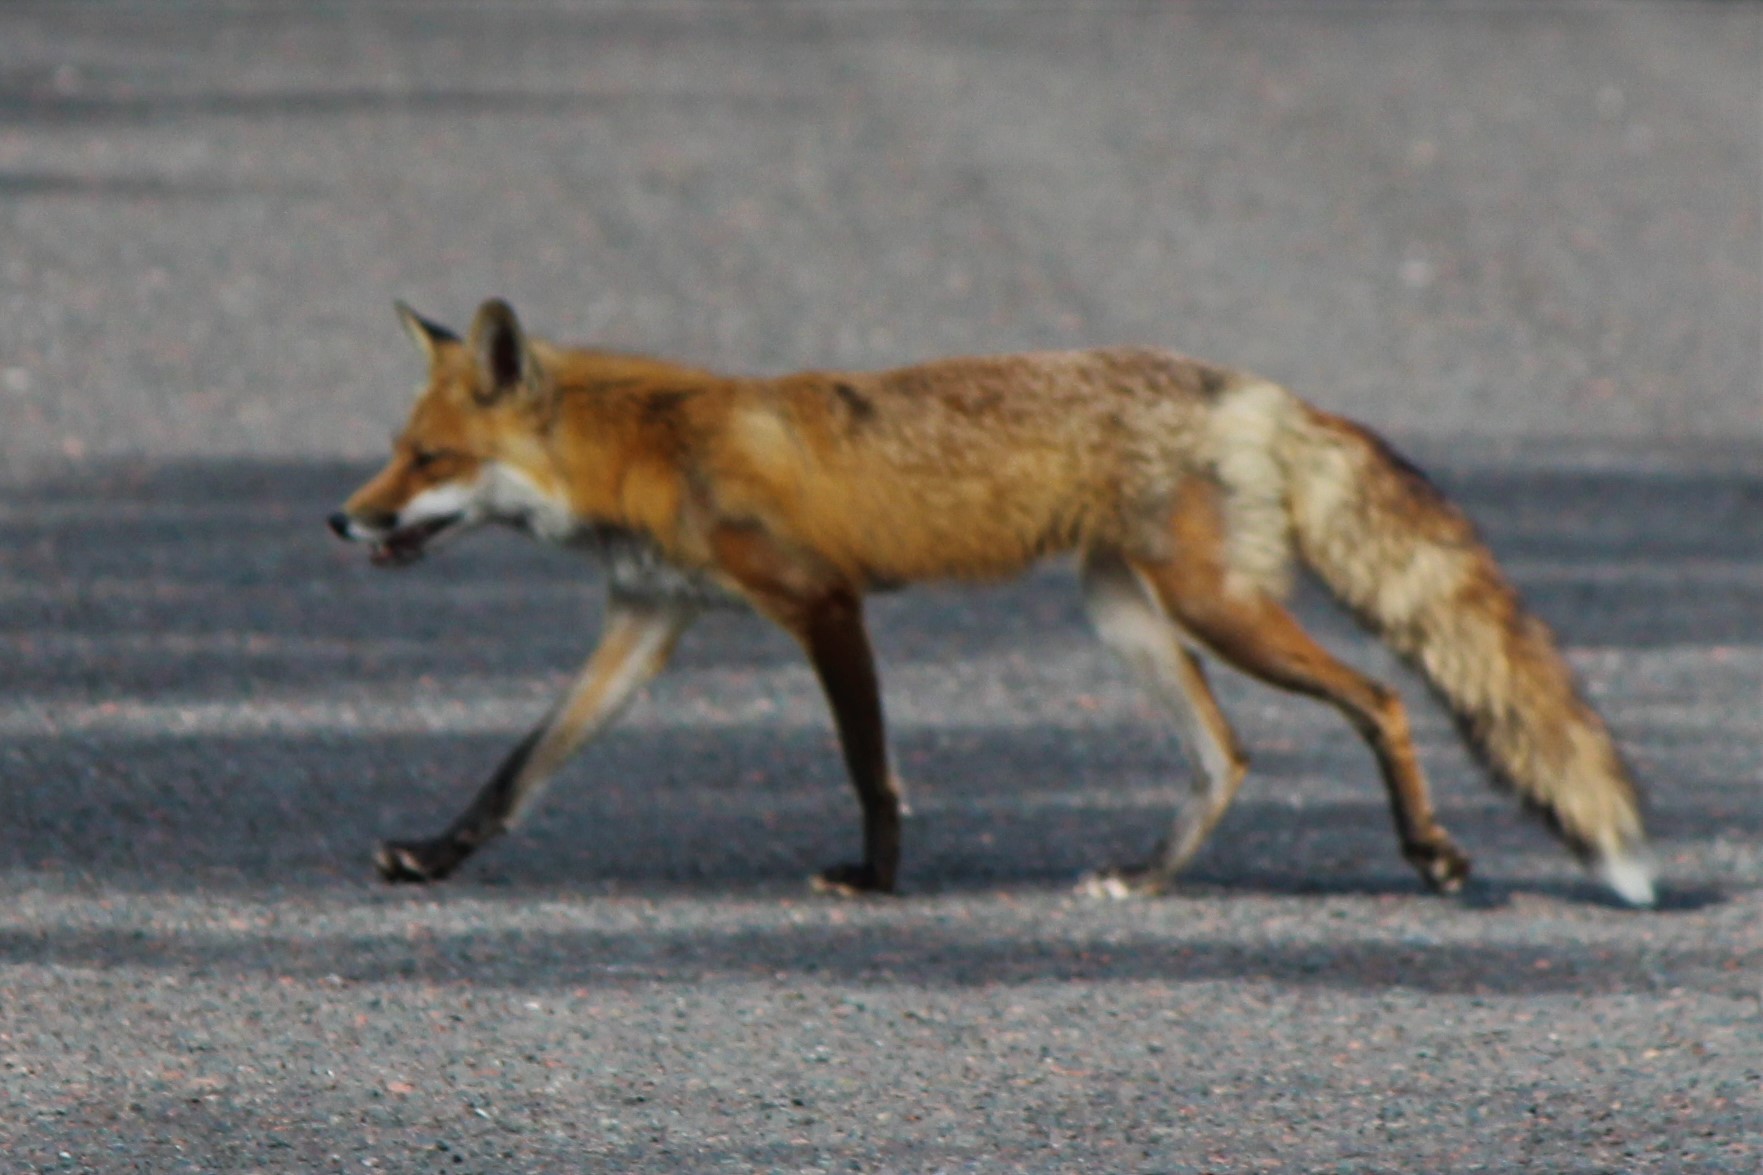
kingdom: Animalia
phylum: Chordata
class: Mammalia
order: Carnivora
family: Canidae
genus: Vulpes
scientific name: Vulpes vulpes
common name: Red fox
